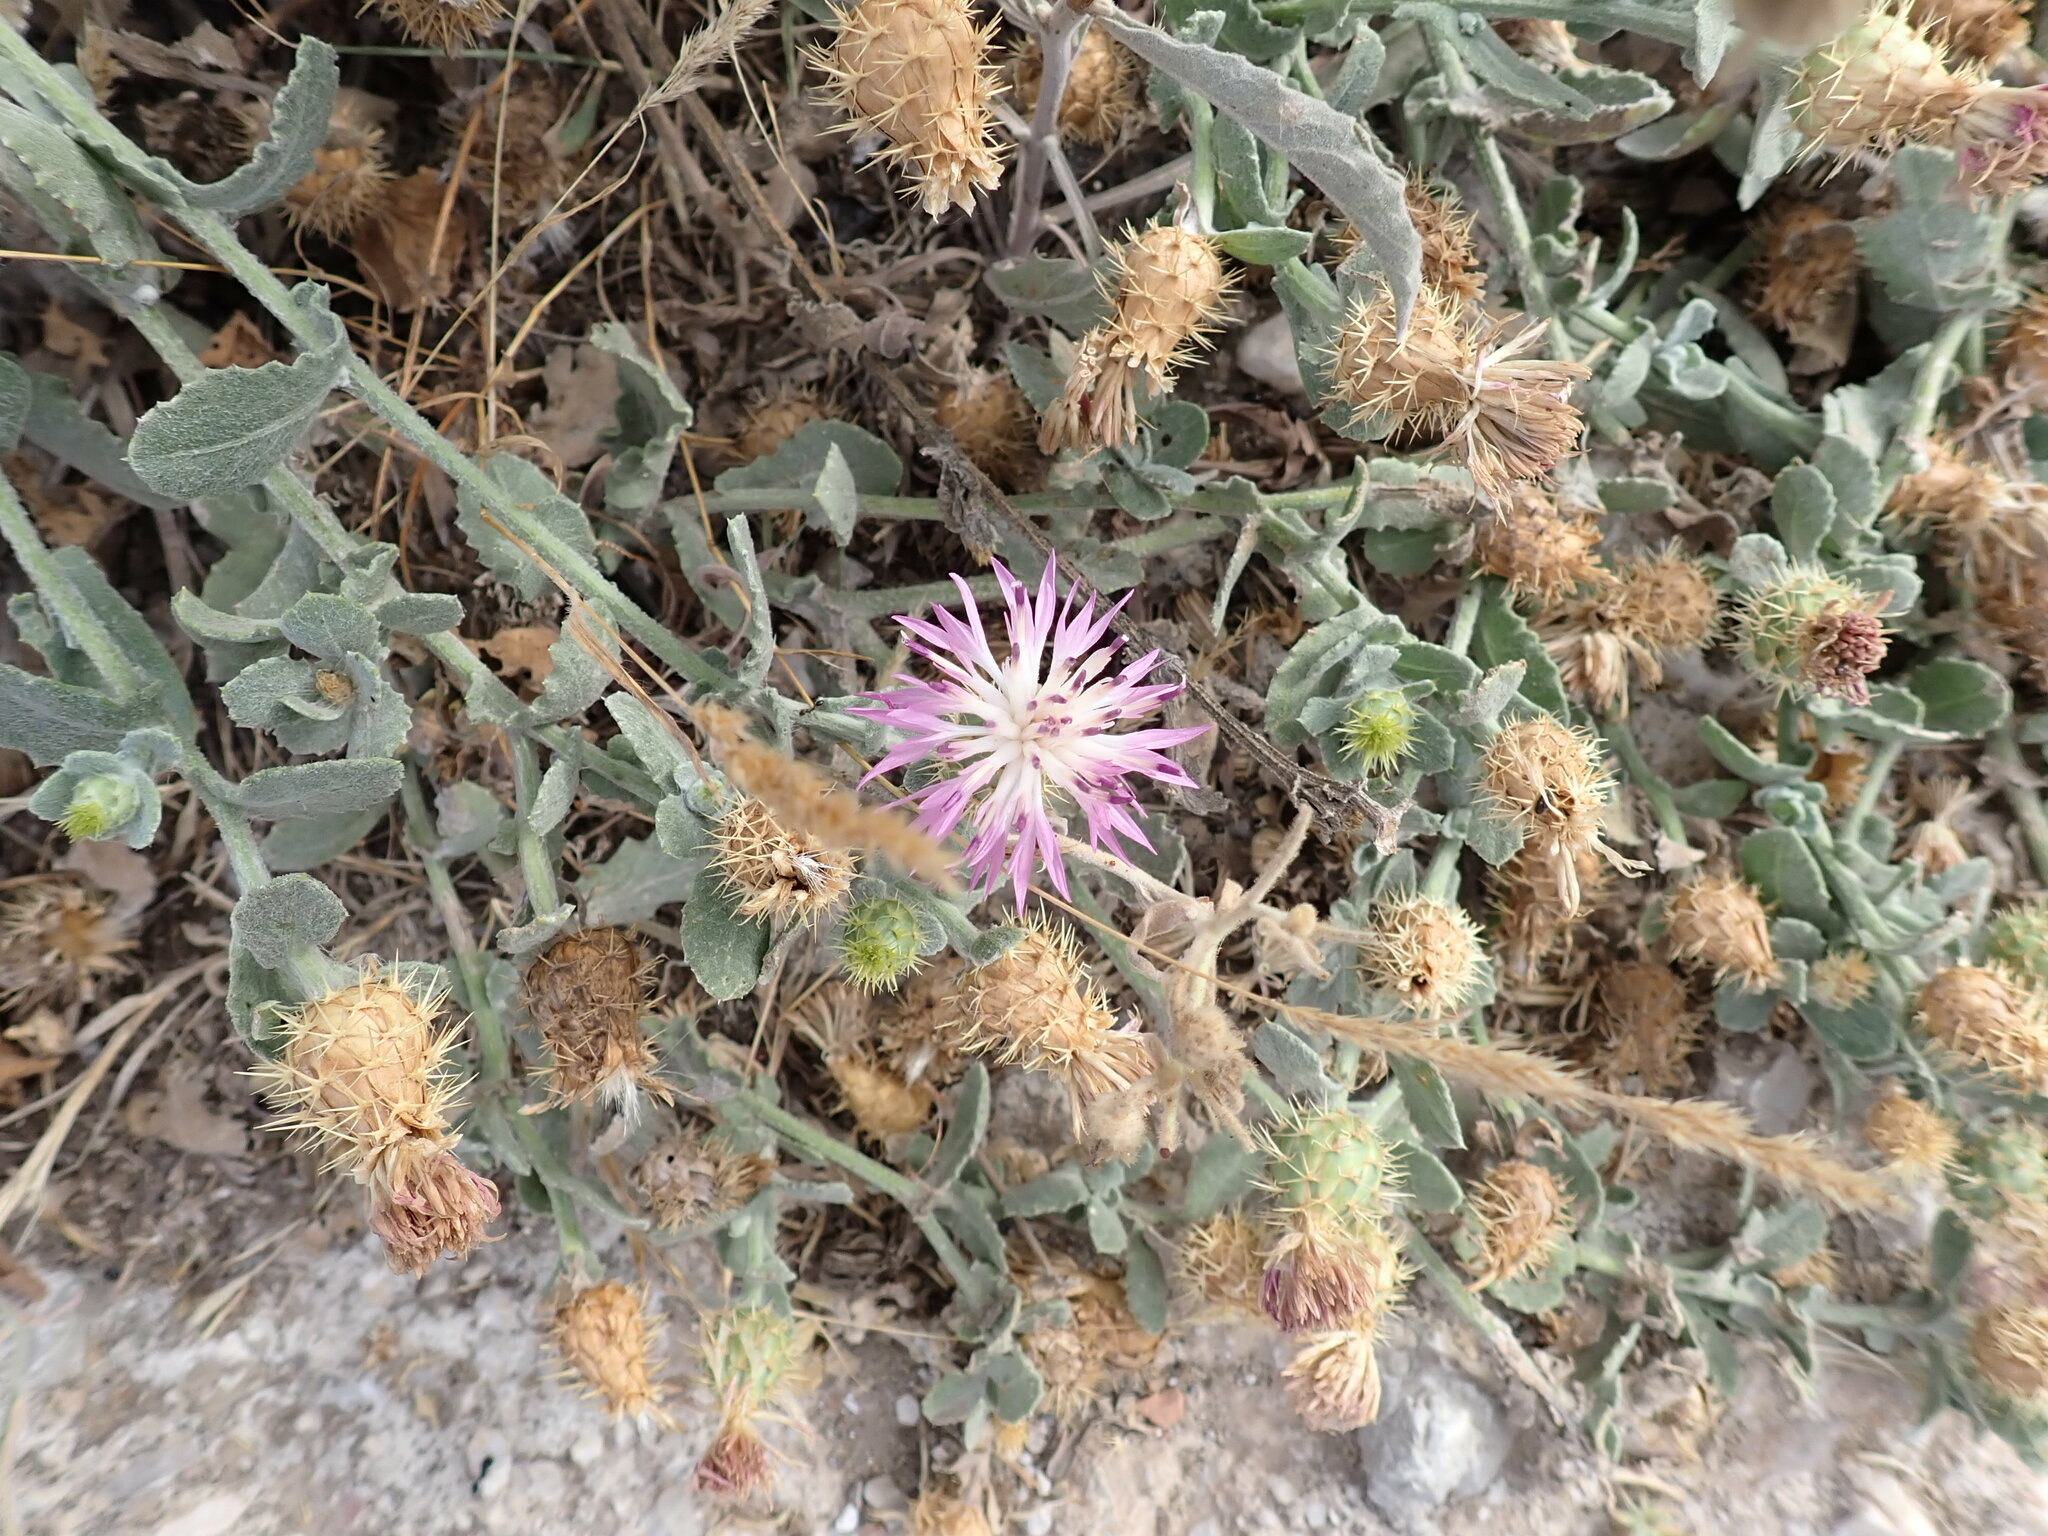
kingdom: Plantae
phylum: Tracheophyta
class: Magnoliopsida
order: Asterales
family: Asteraceae
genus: Centaurea
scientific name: Centaurea seridis
